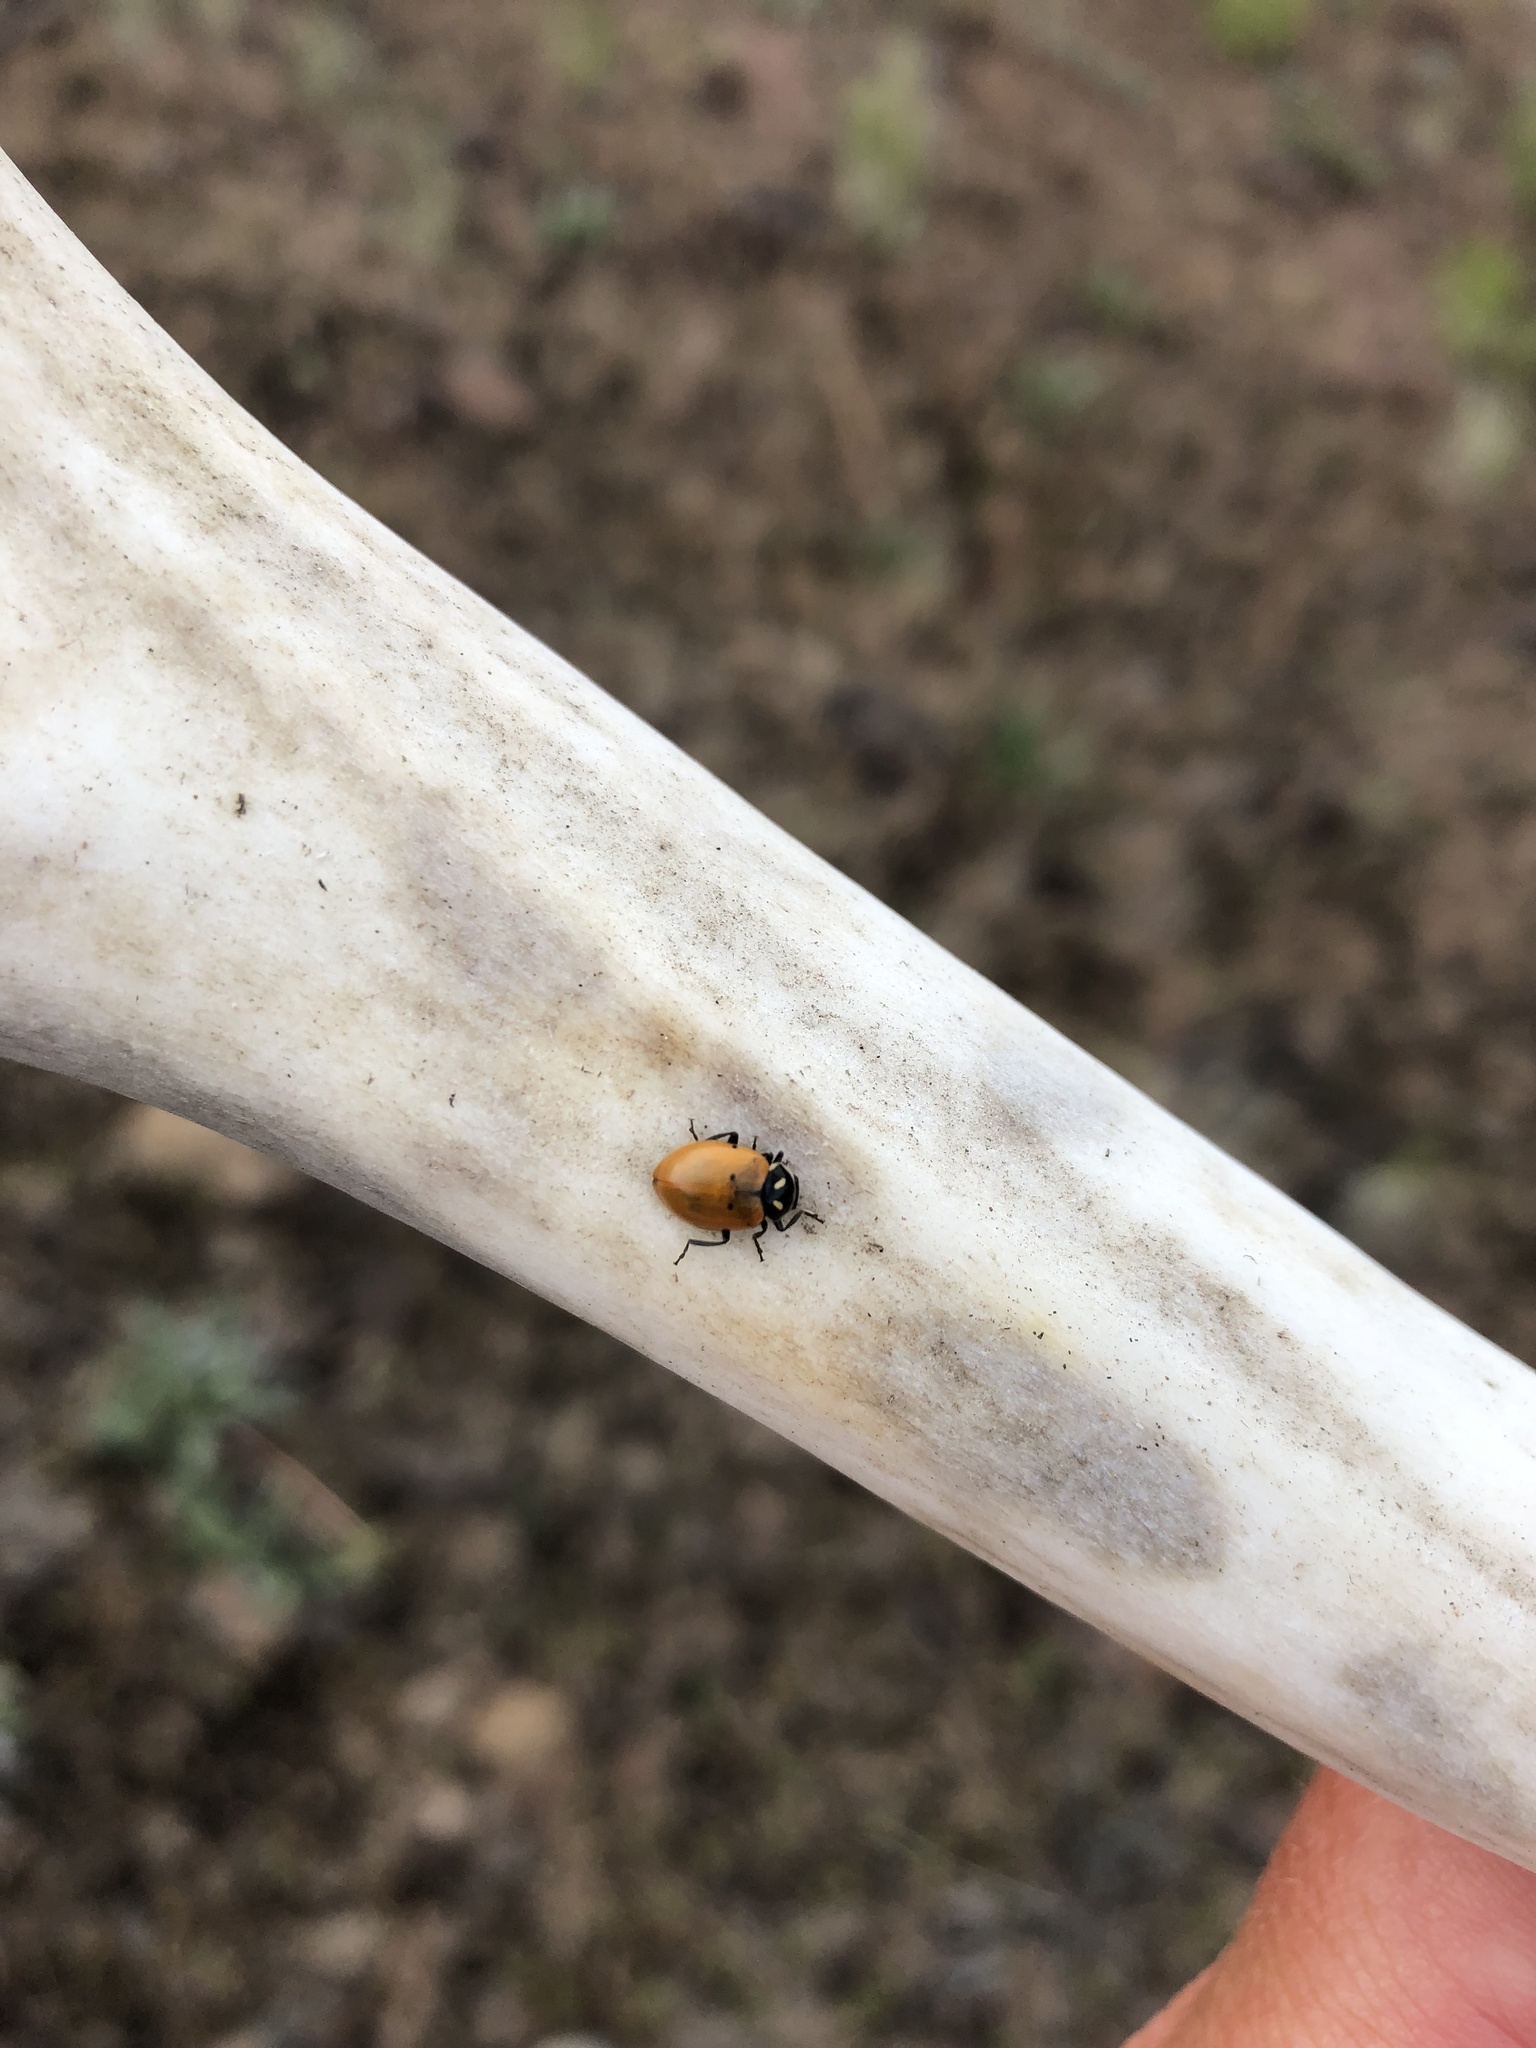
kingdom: Animalia
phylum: Arthropoda
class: Insecta
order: Coleoptera
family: Coccinellidae
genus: Hippodamia
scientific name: Hippodamia convergens
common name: Convergent lady beetle
